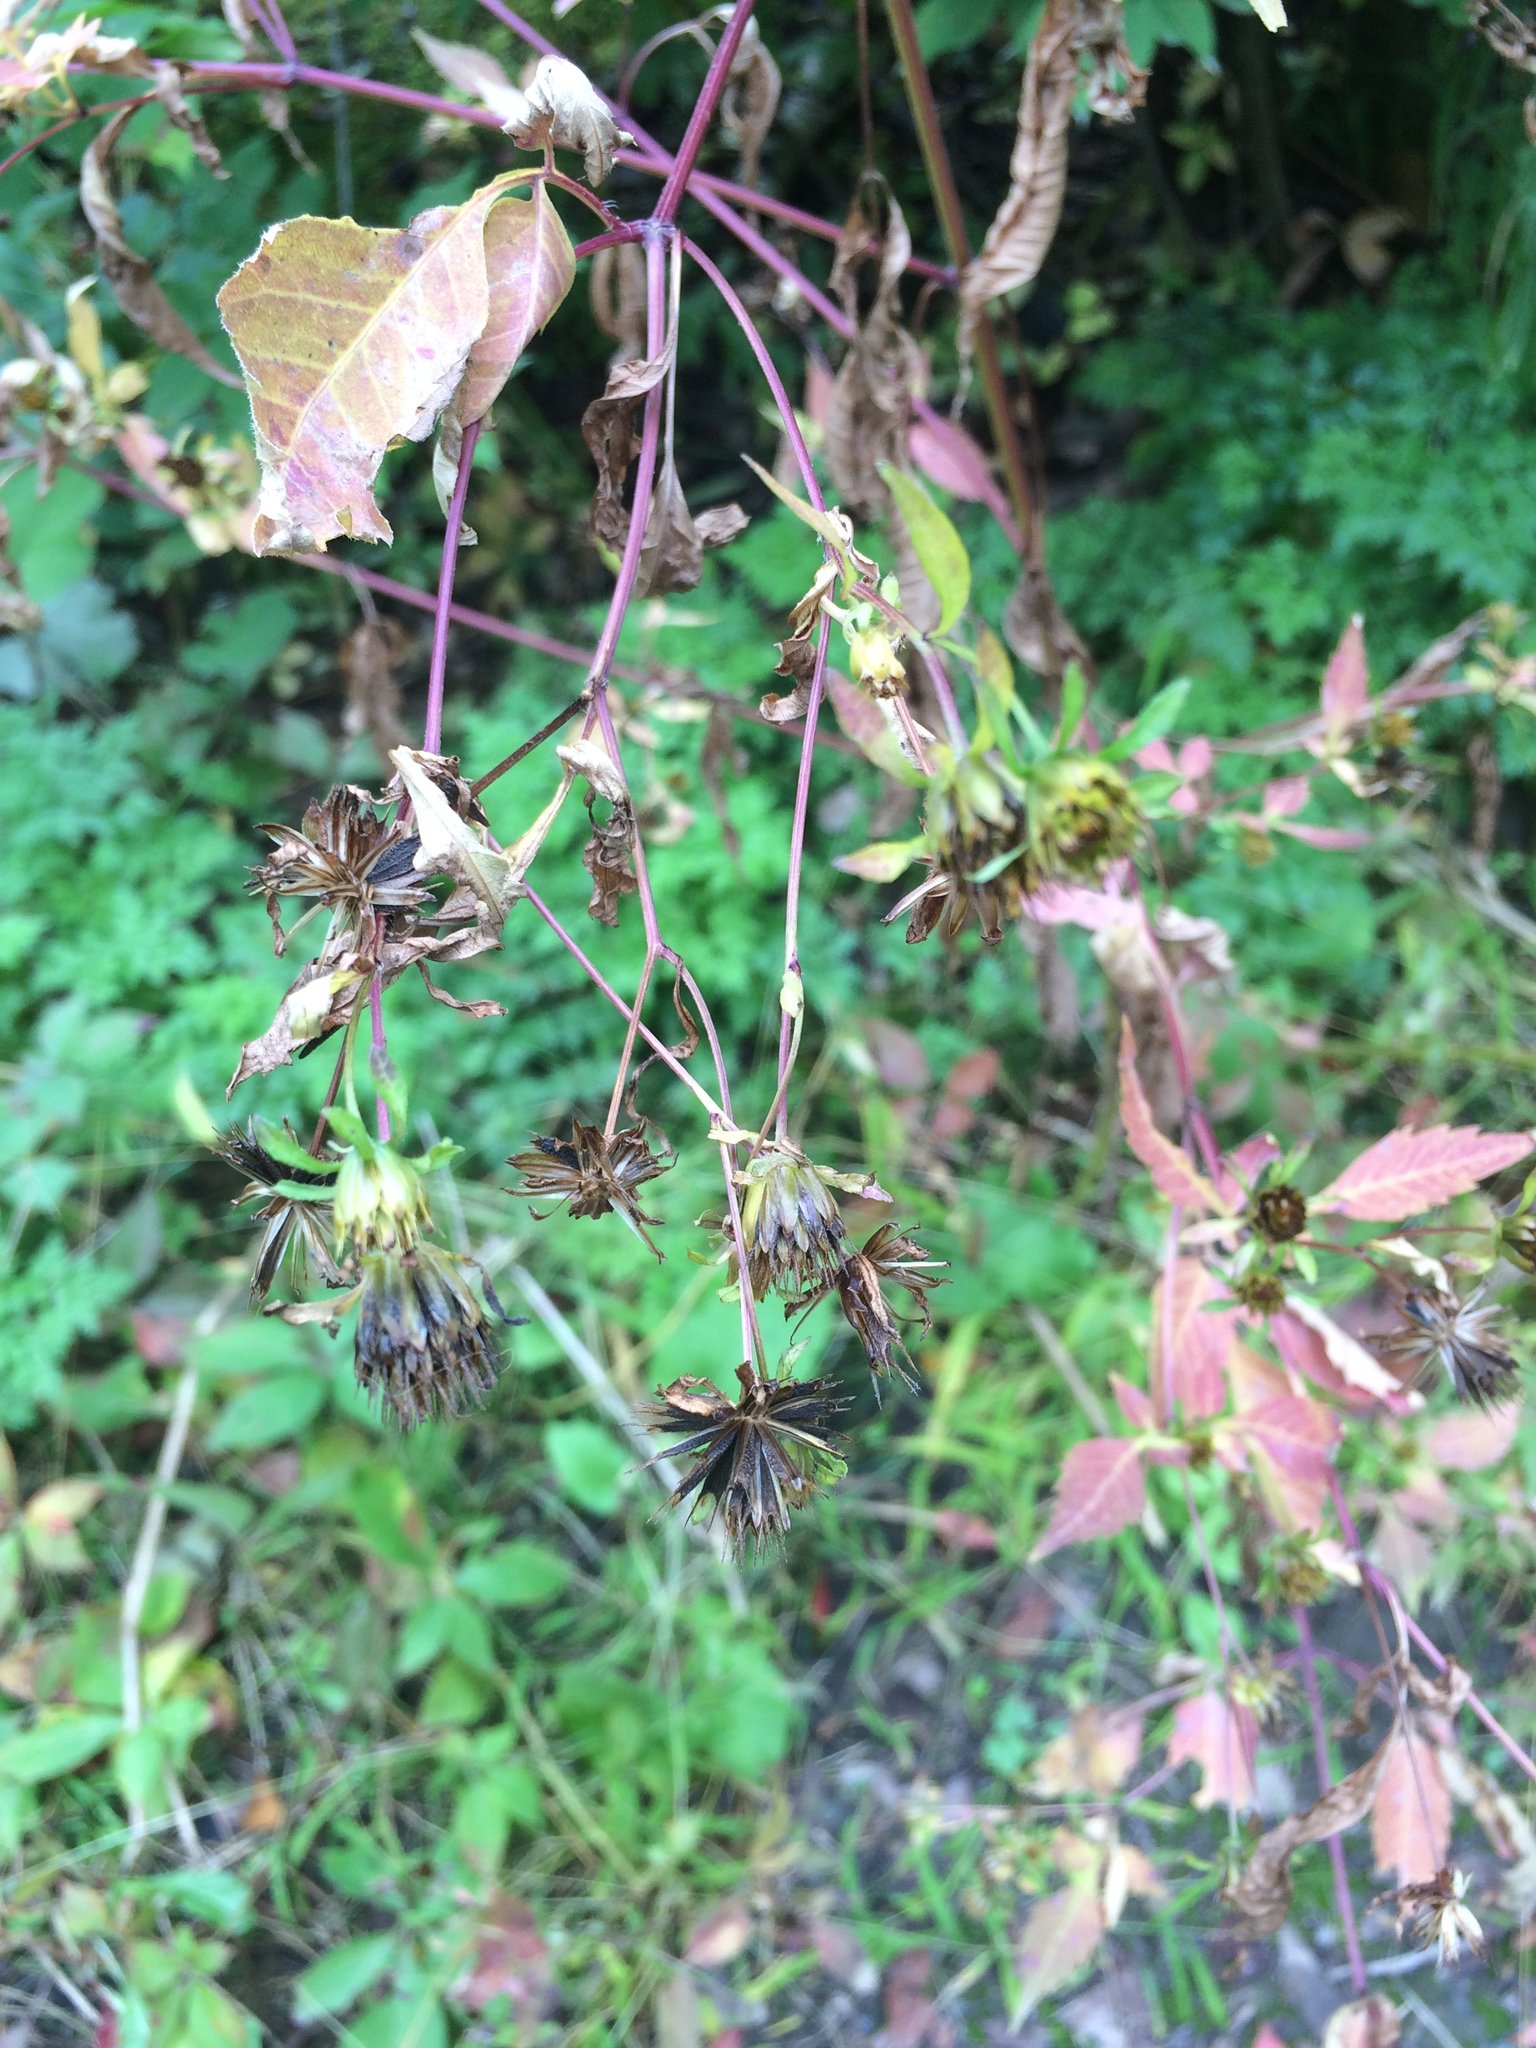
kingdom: Plantae
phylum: Tracheophyta
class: Magnoliopsida
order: Asterales
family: Asteraceae
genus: Bidens
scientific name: Bidens frondosa
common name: Beggarticks
